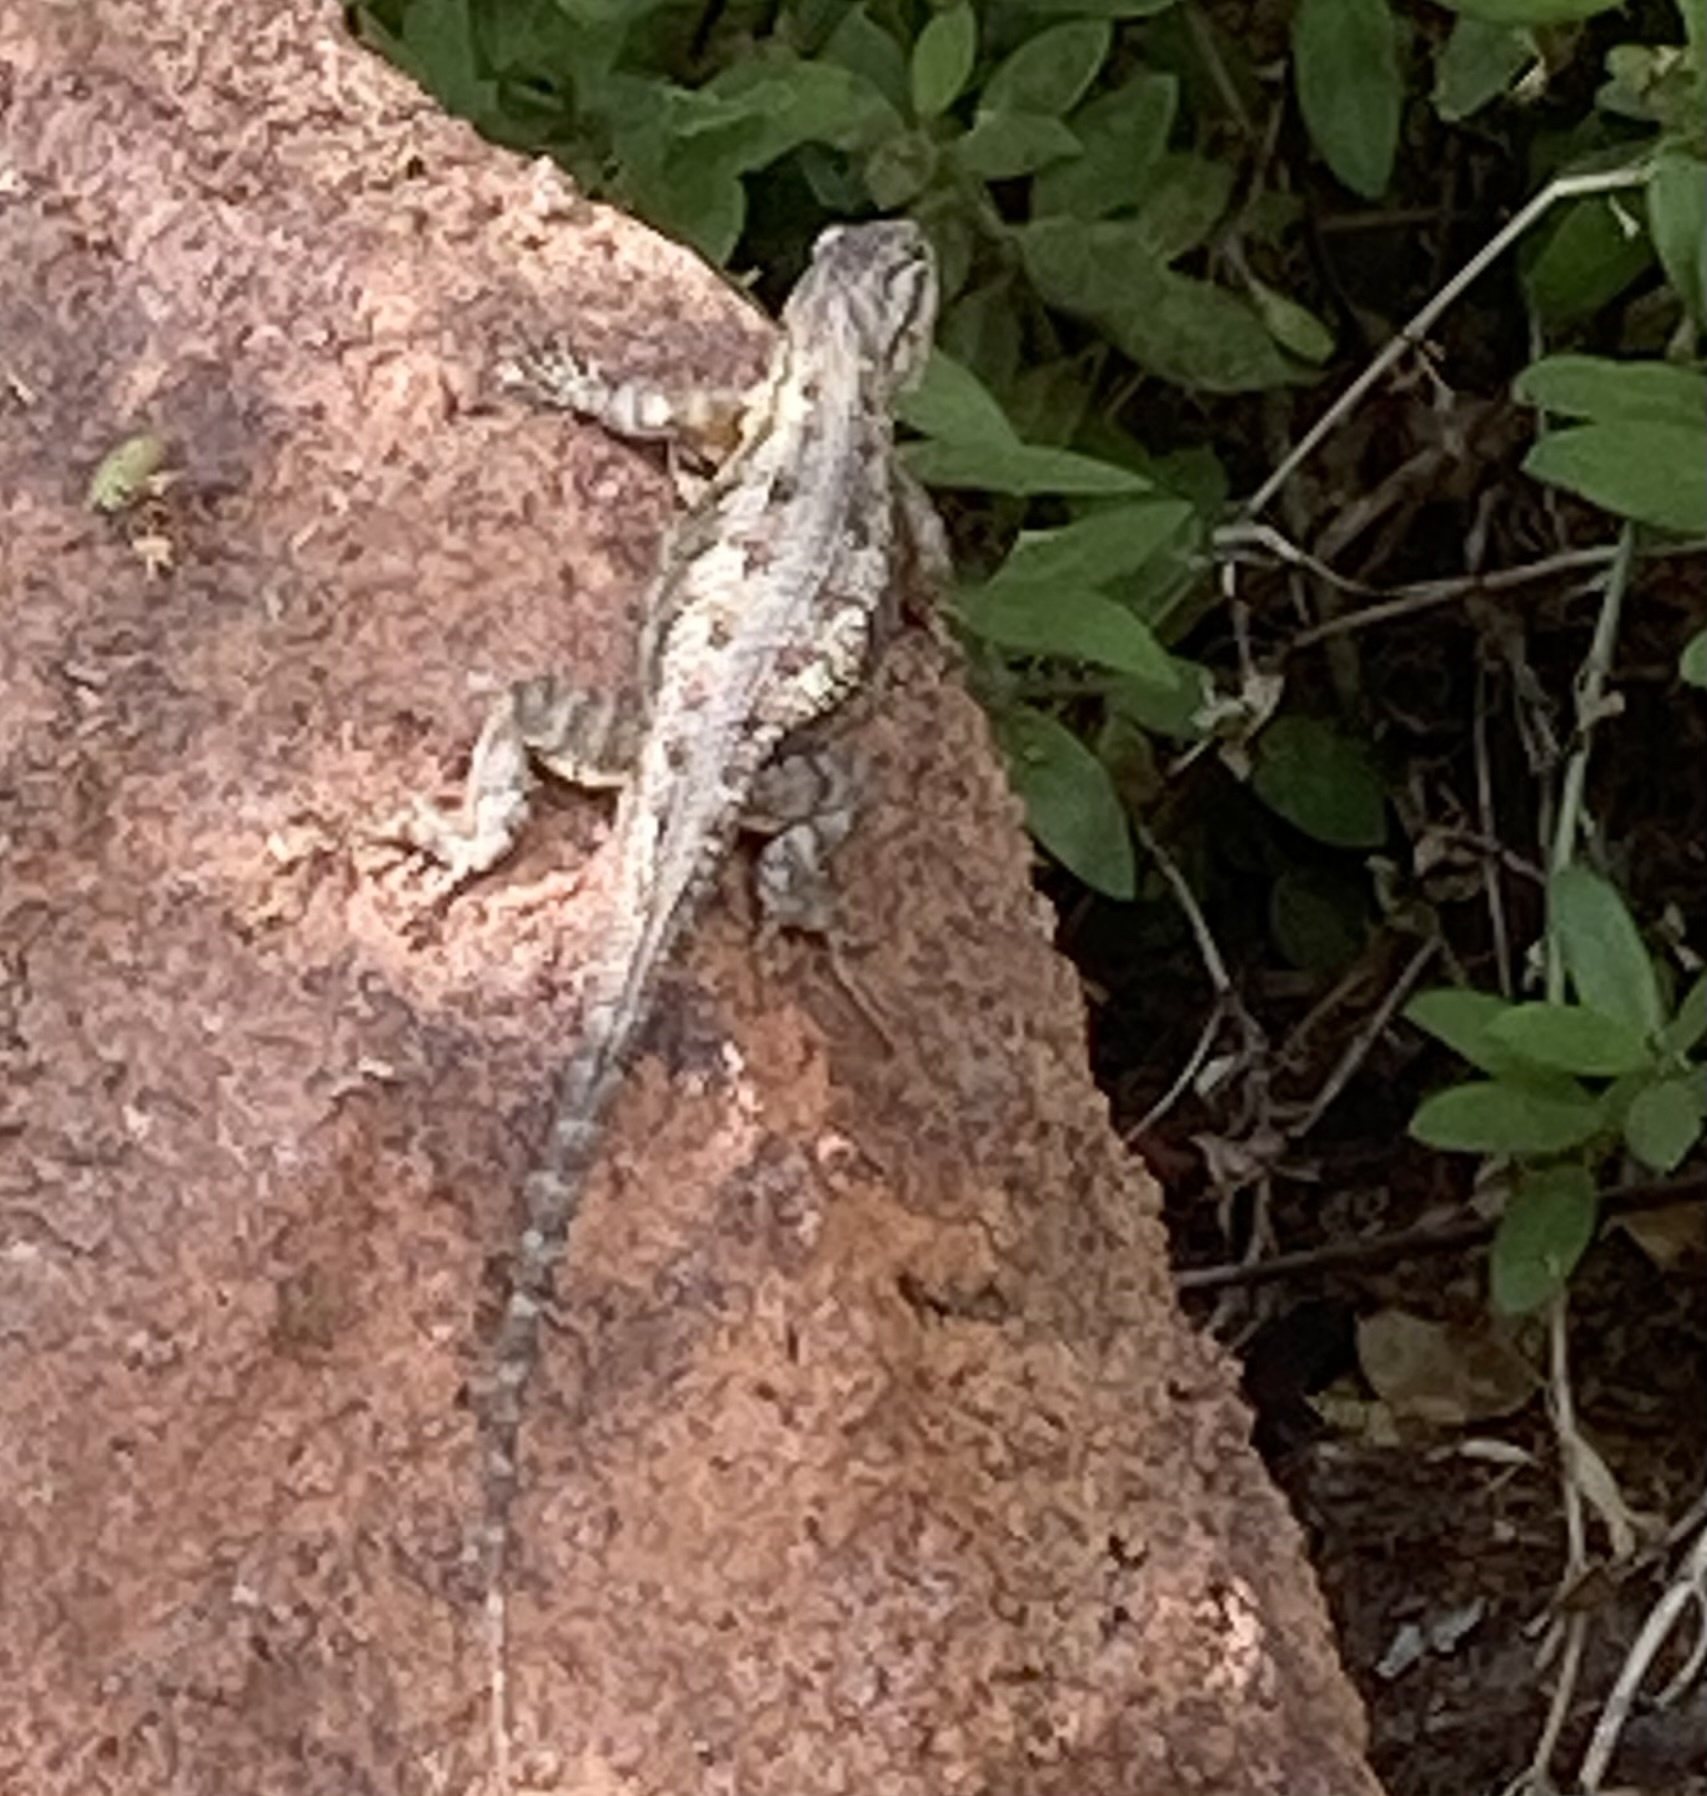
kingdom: Animalia
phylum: Chordata
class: Squamata
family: Phrynosomatidae
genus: Sceloporus
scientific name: Sceloporus occidentalis
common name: Western fence lizard
